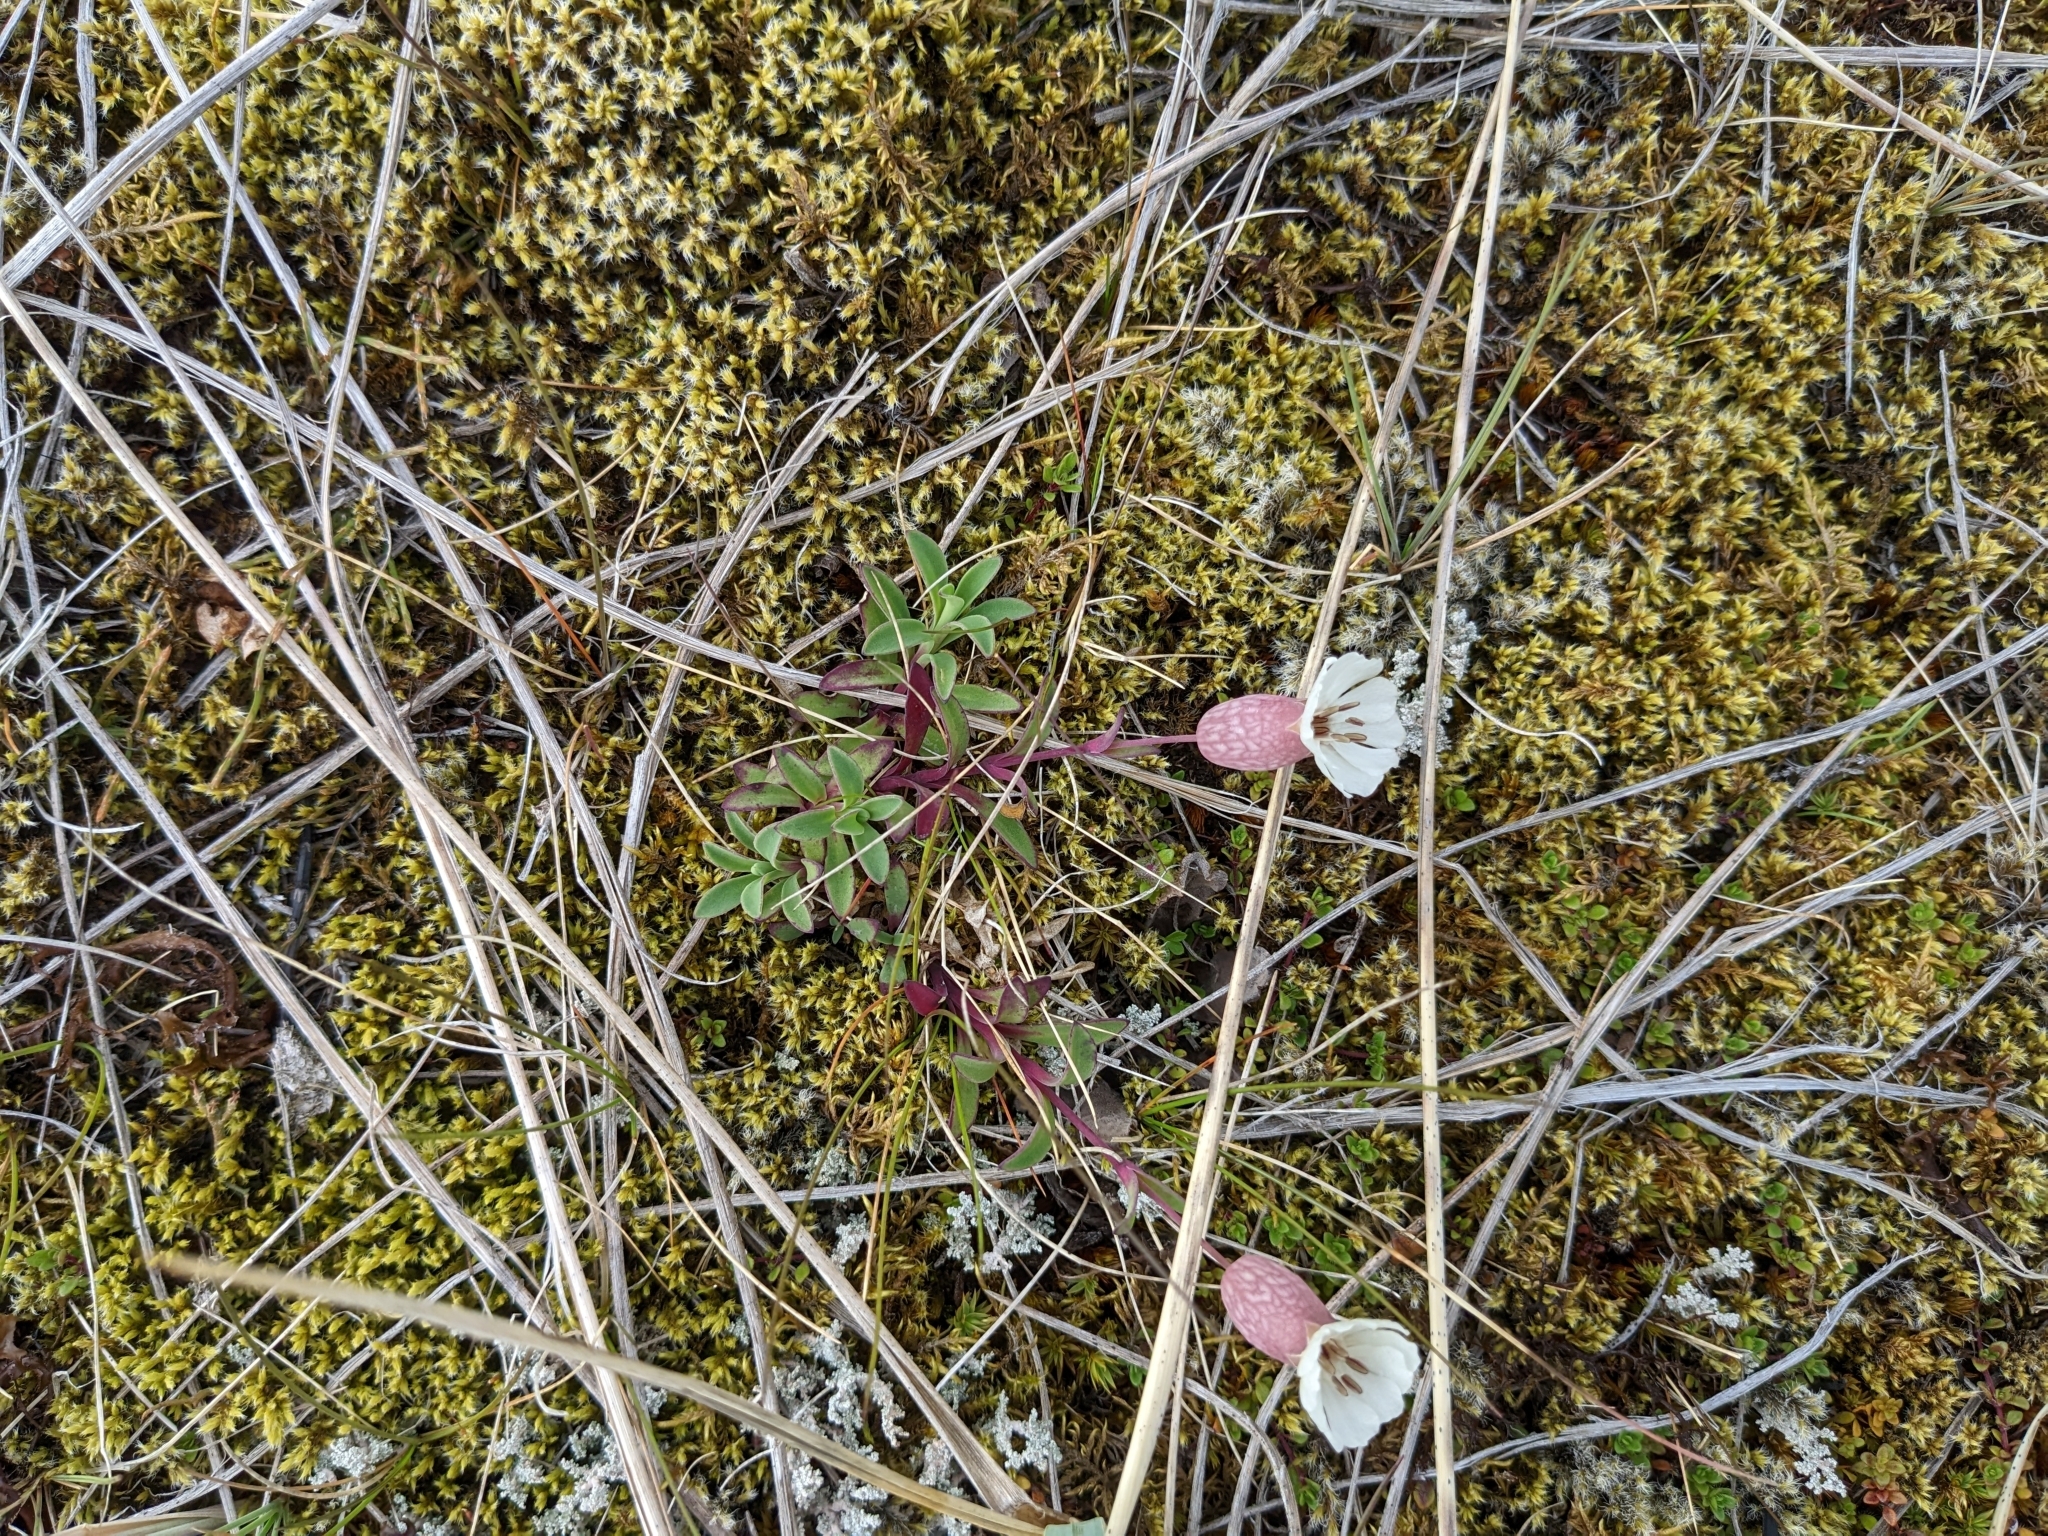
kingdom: Plantae
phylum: Tracheophyta
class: Magnoliopsida
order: Caryophyllales
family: Caryophyllaceae
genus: Silene
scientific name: Silene uniflora
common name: Sea campion
